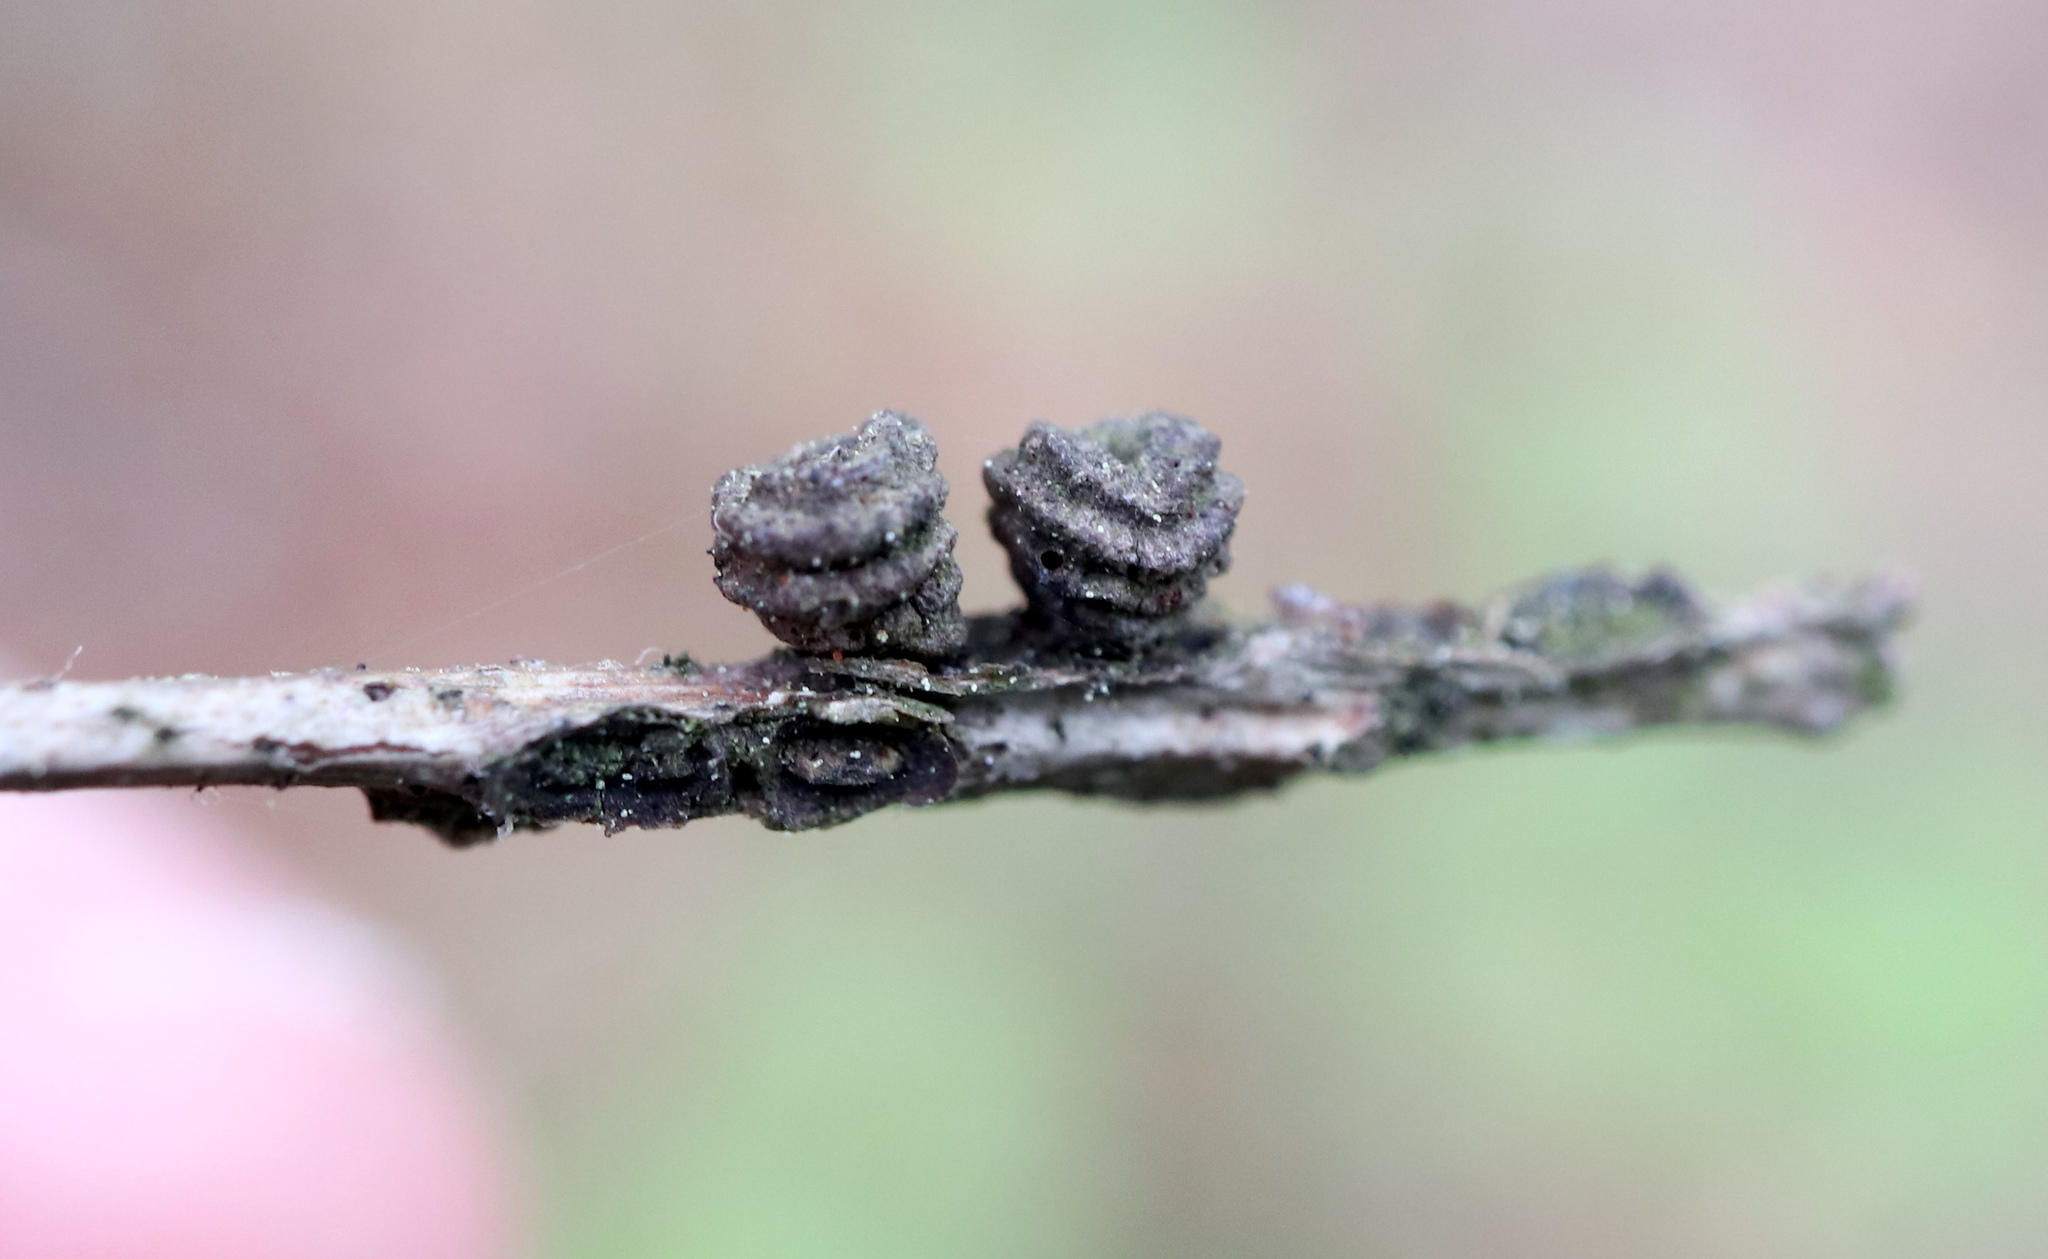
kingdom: Animalia
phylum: Arthropoda
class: Insecta
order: Hymenoptera
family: Cynipidae
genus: Kokkocynips
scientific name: Kokkocynips difficilis
